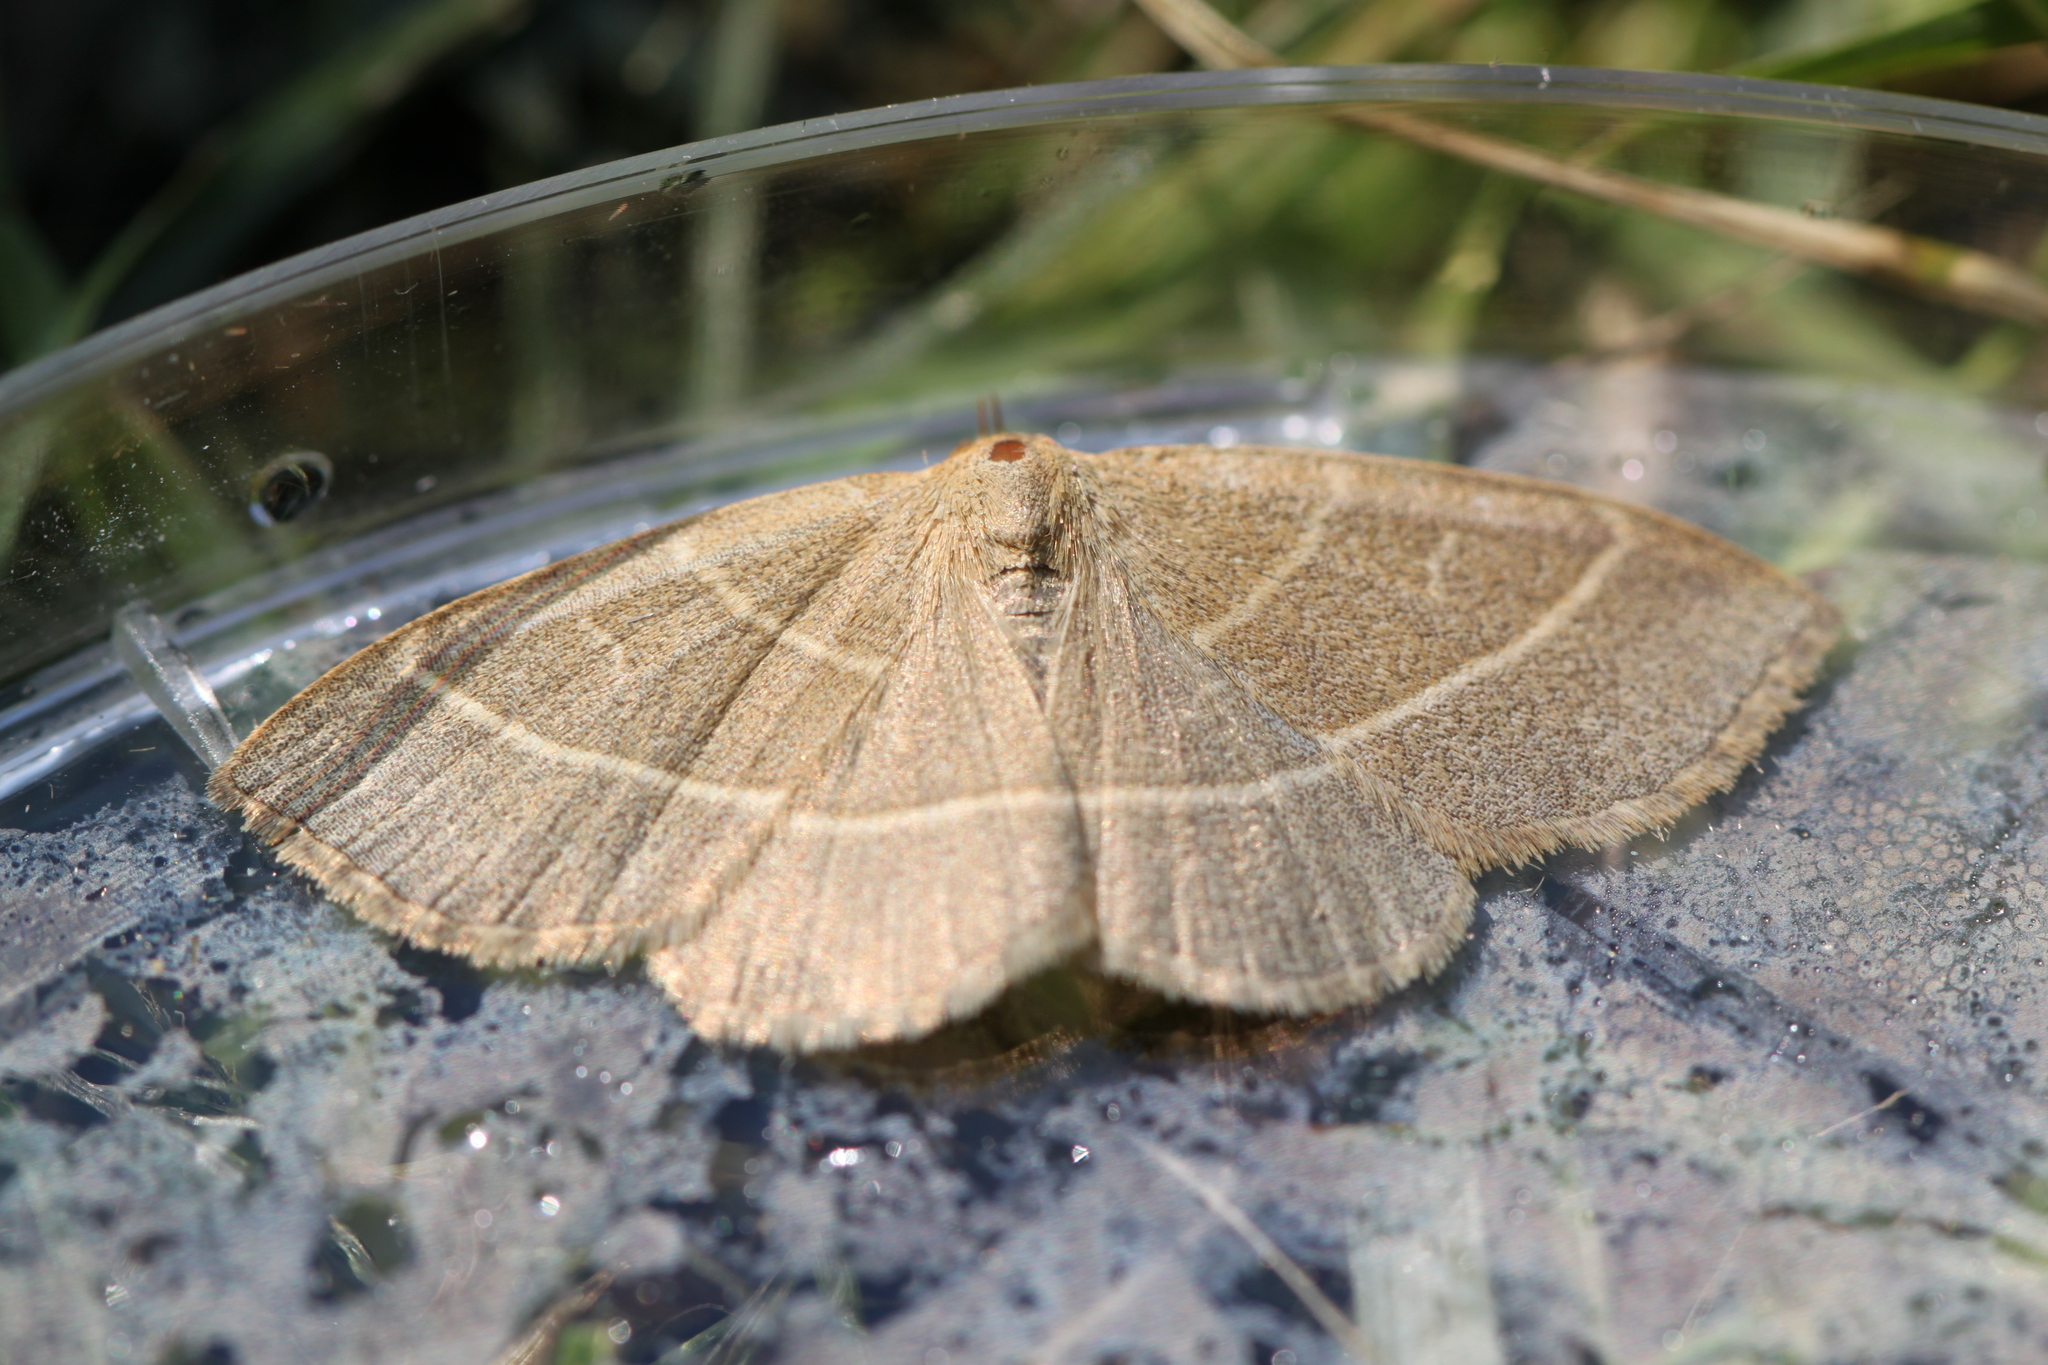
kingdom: Animalia
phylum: Arthropoda
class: Insecta
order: Lepidoptera
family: Erebidae
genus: Trisateles
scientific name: Trisateles emortualis
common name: Olive crescent
